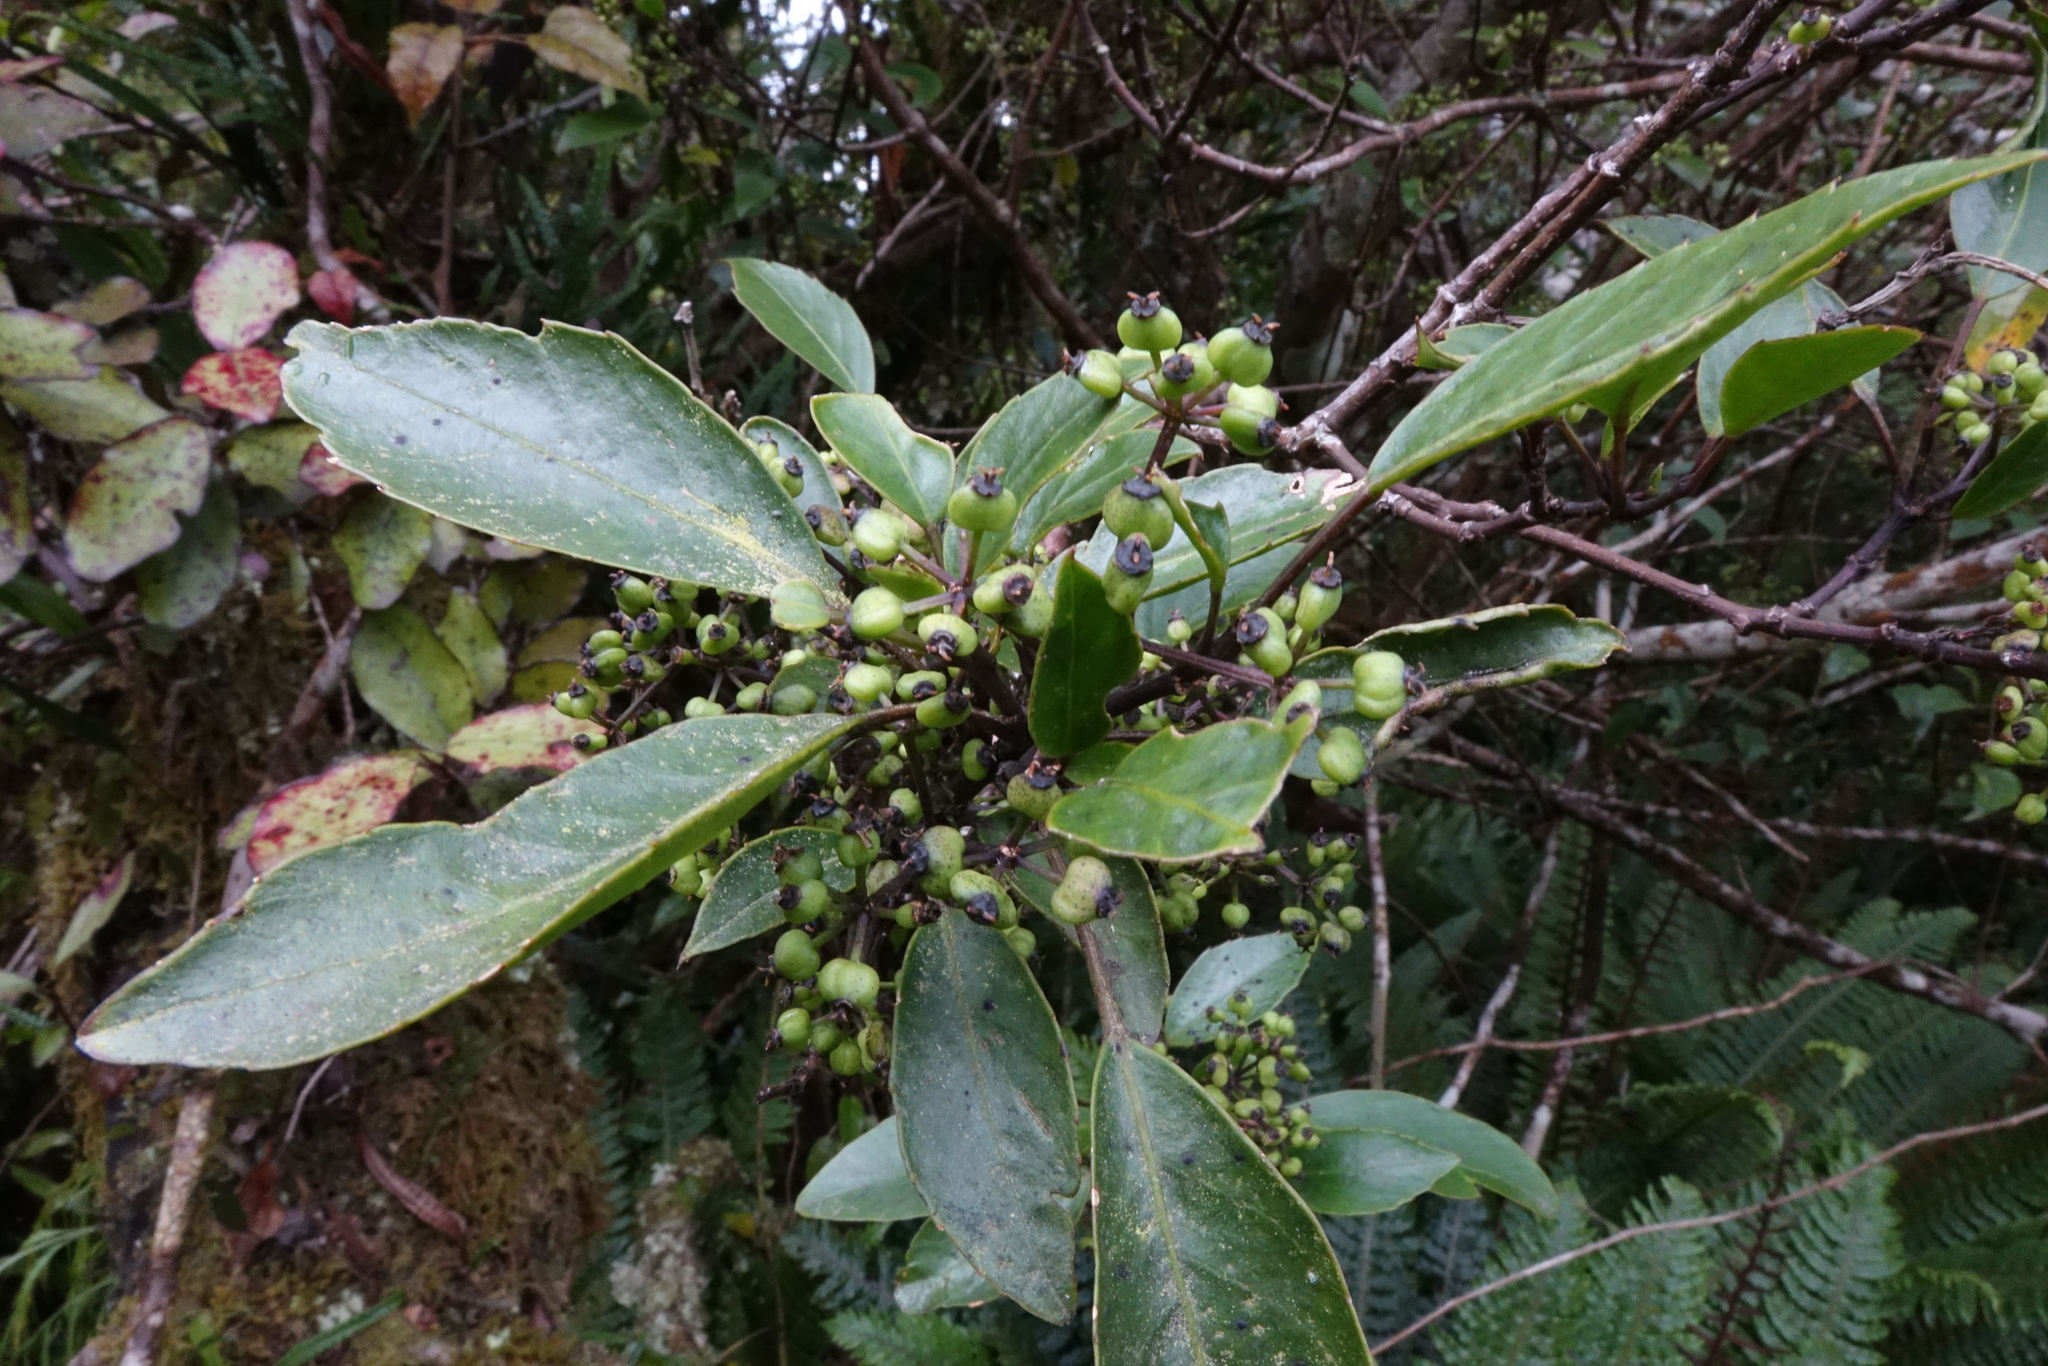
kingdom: Plantae
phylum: Tracheophyta
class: Magnoliopsida
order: Apiales
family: Araliaceae
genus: Raukaua
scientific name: Raukaua simplex
